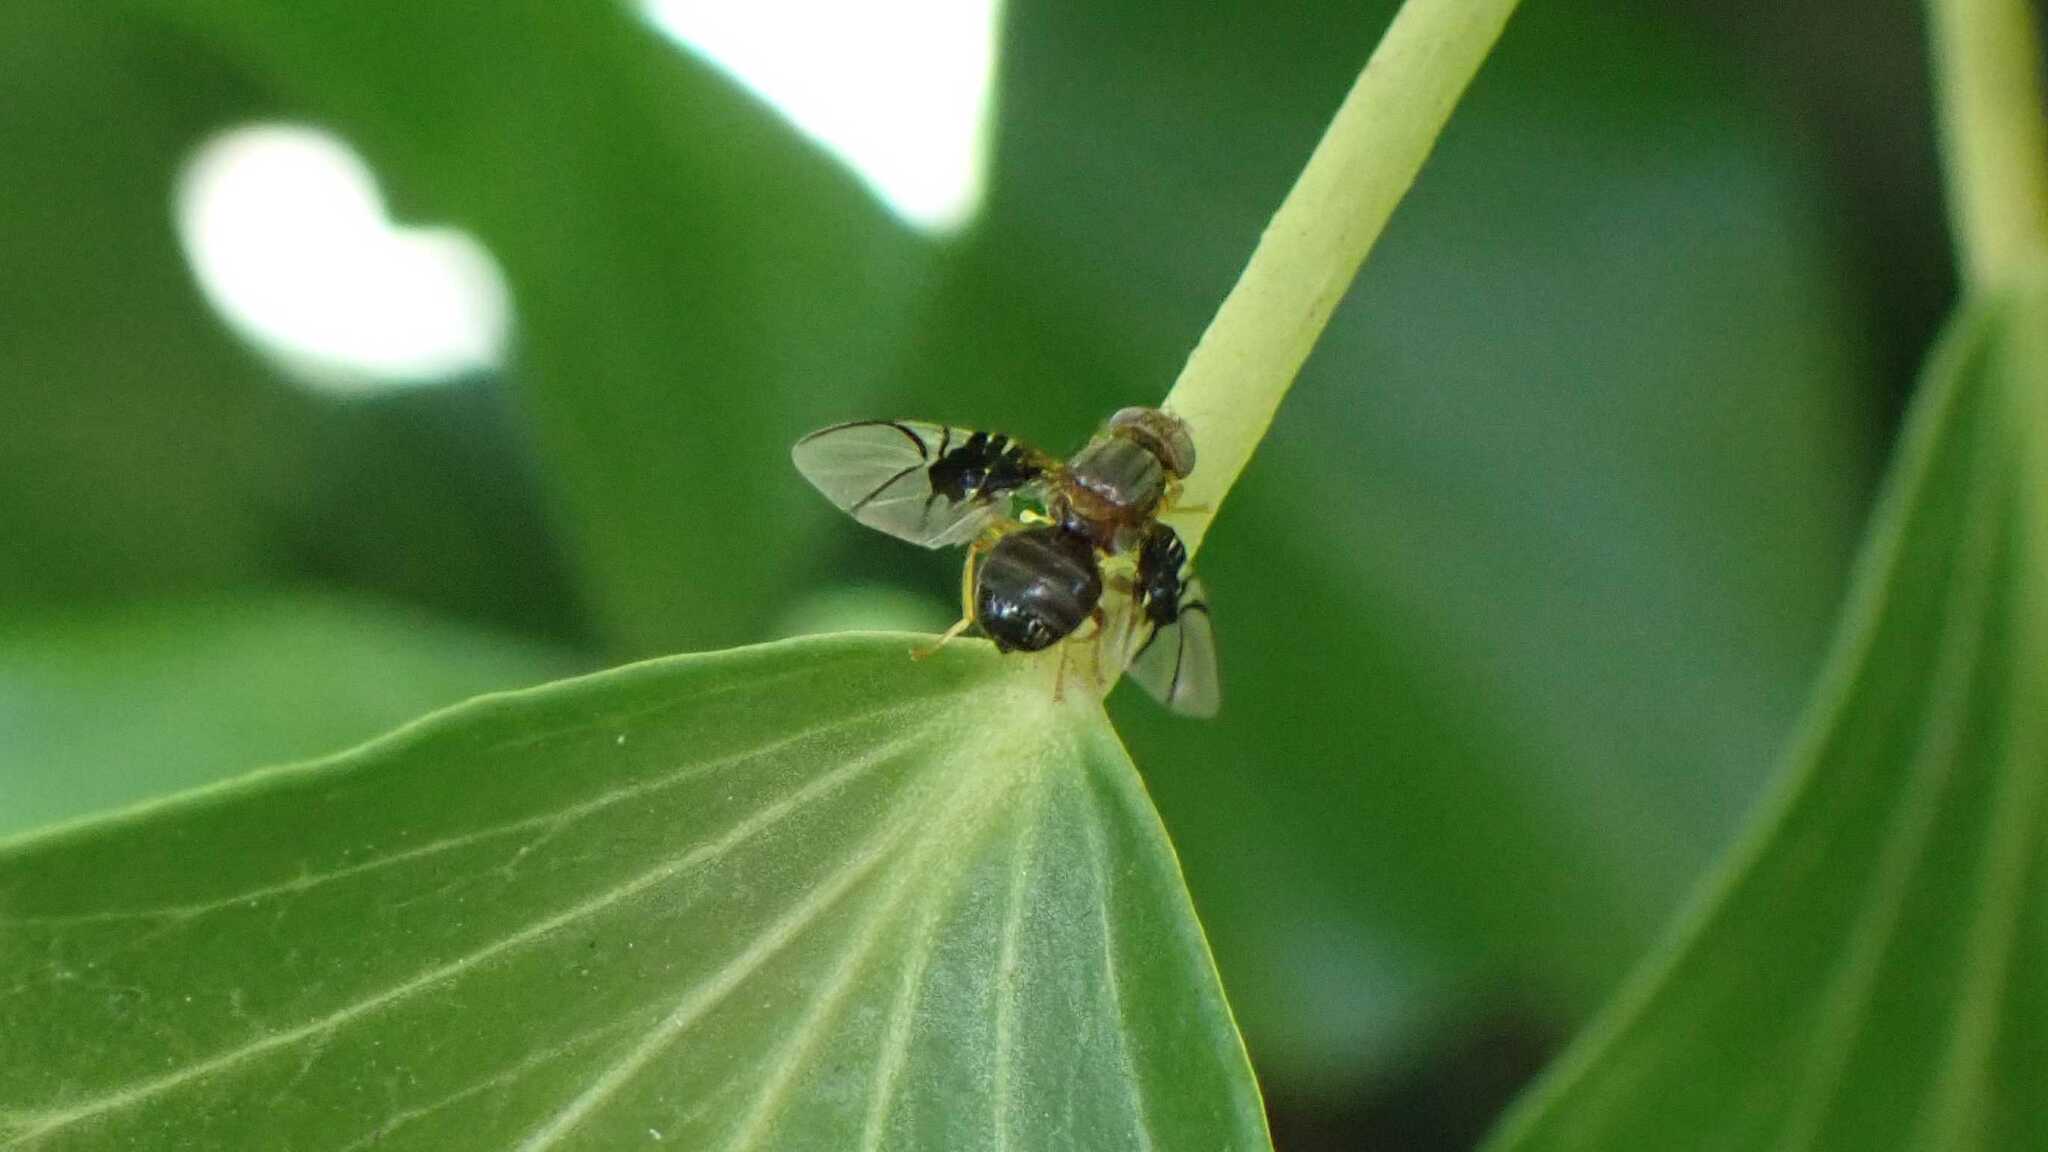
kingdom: Animalia
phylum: Arthropoda
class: Insecta
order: Diptera
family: Tephritidae
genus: Anomoia
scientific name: Anomoia purmunda
